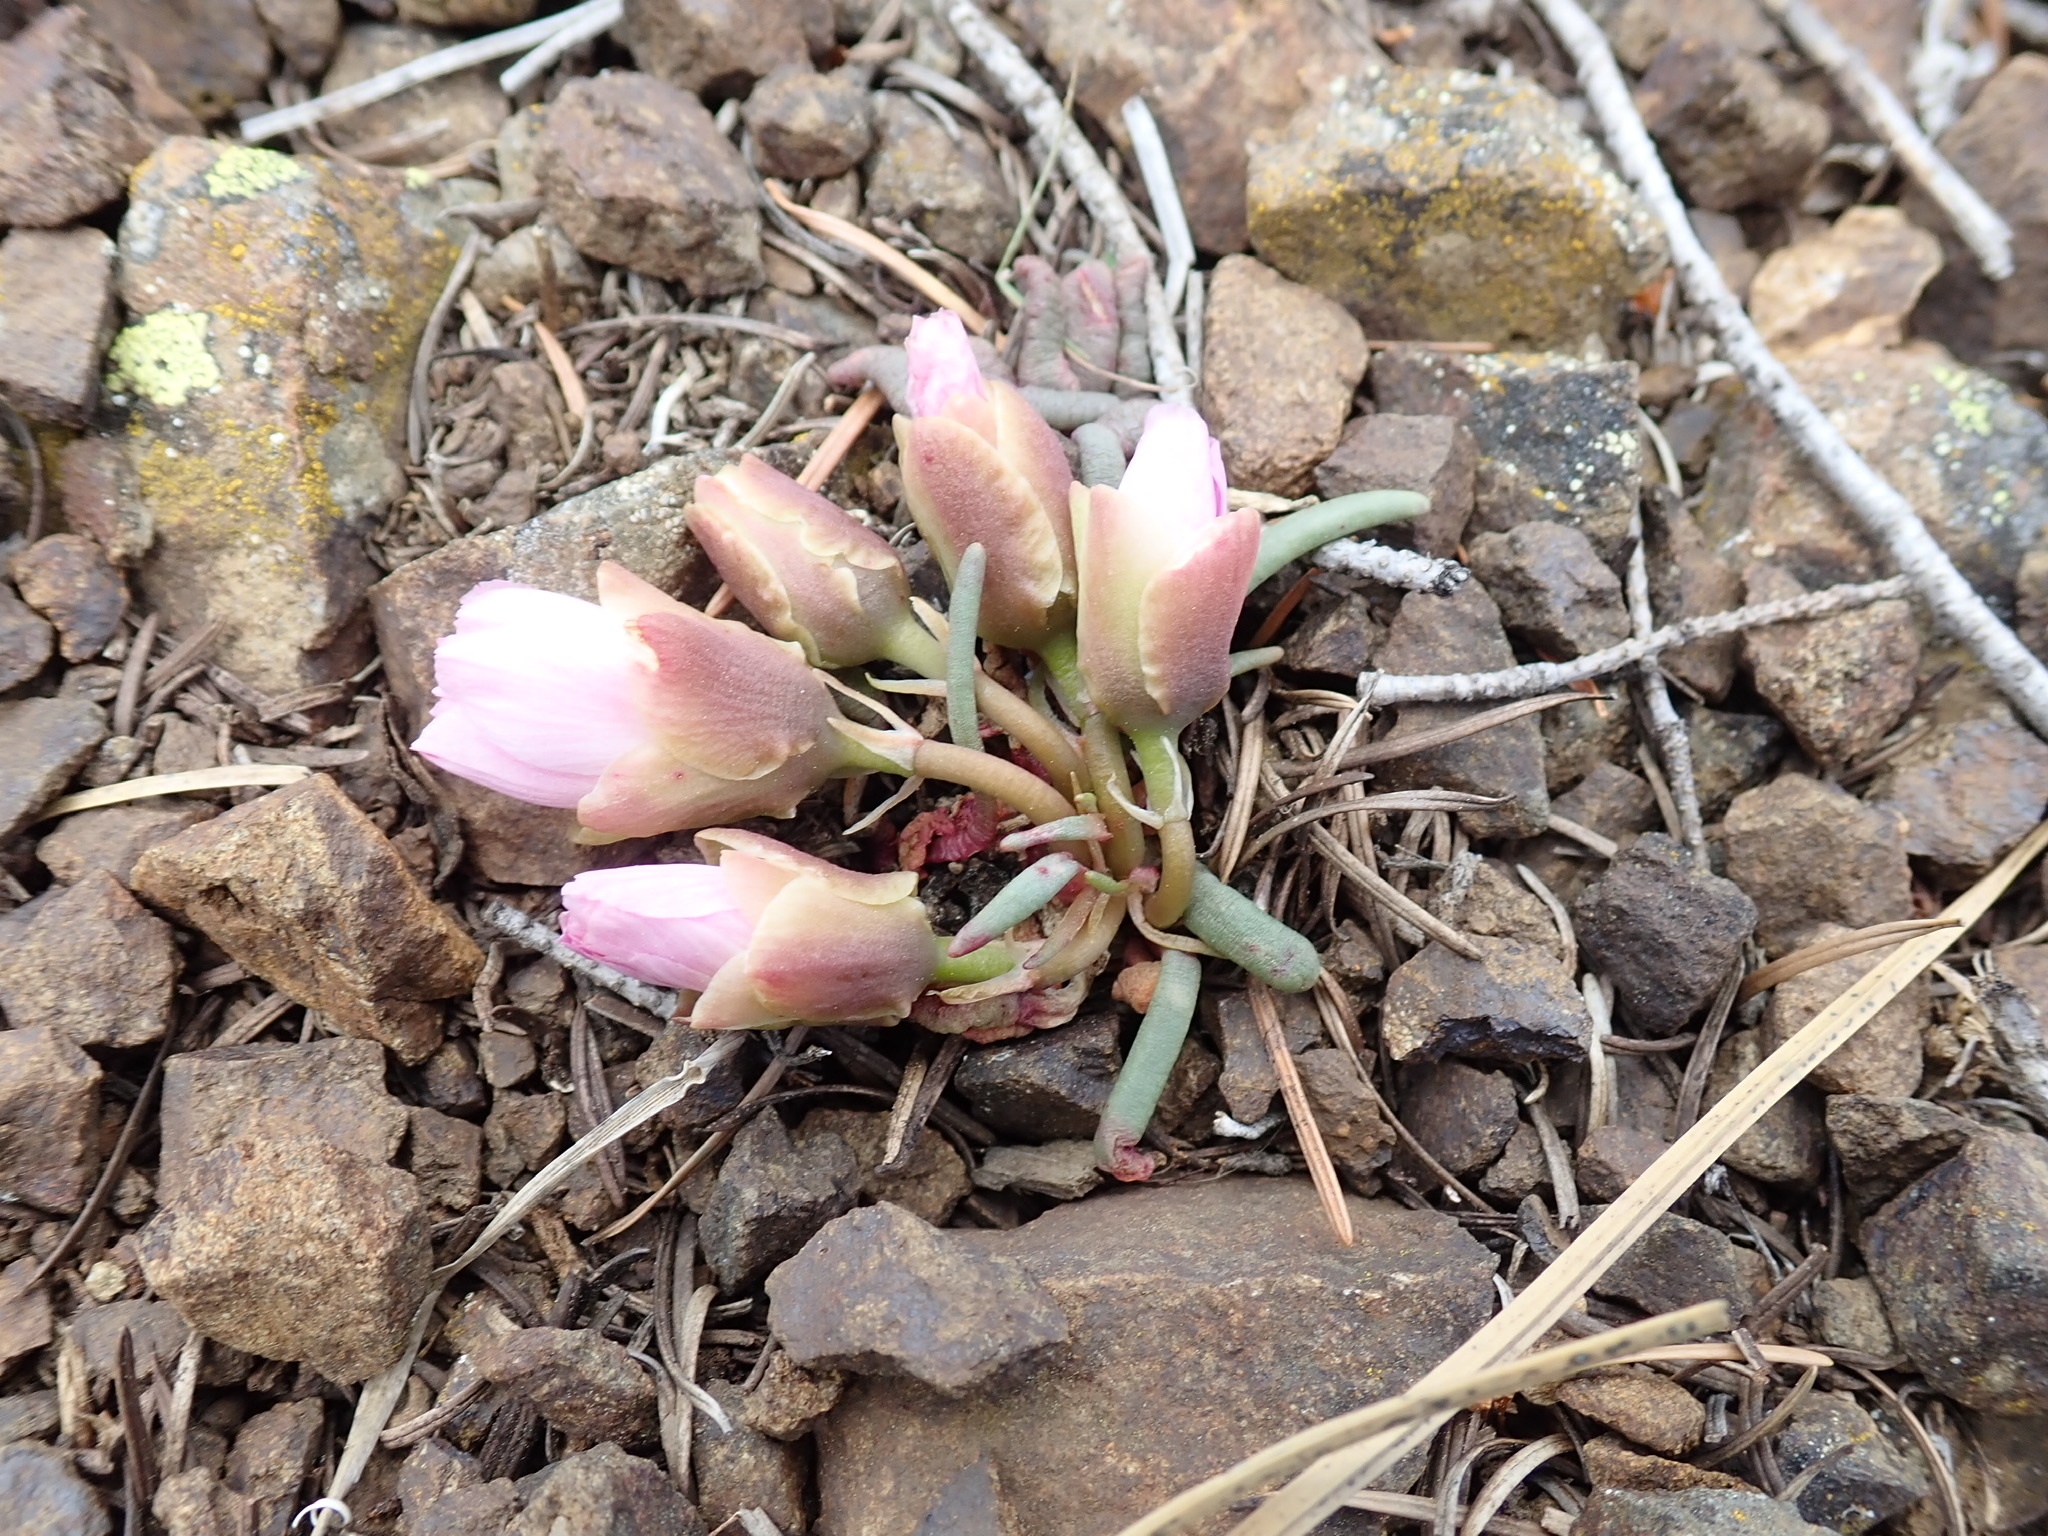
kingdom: Plantae
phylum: Tracheophyta
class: Magnoliopsida
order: Caryophyllales
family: Montiaceae
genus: Lewisia
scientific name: Lewisia rediviva
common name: Bitter-root
